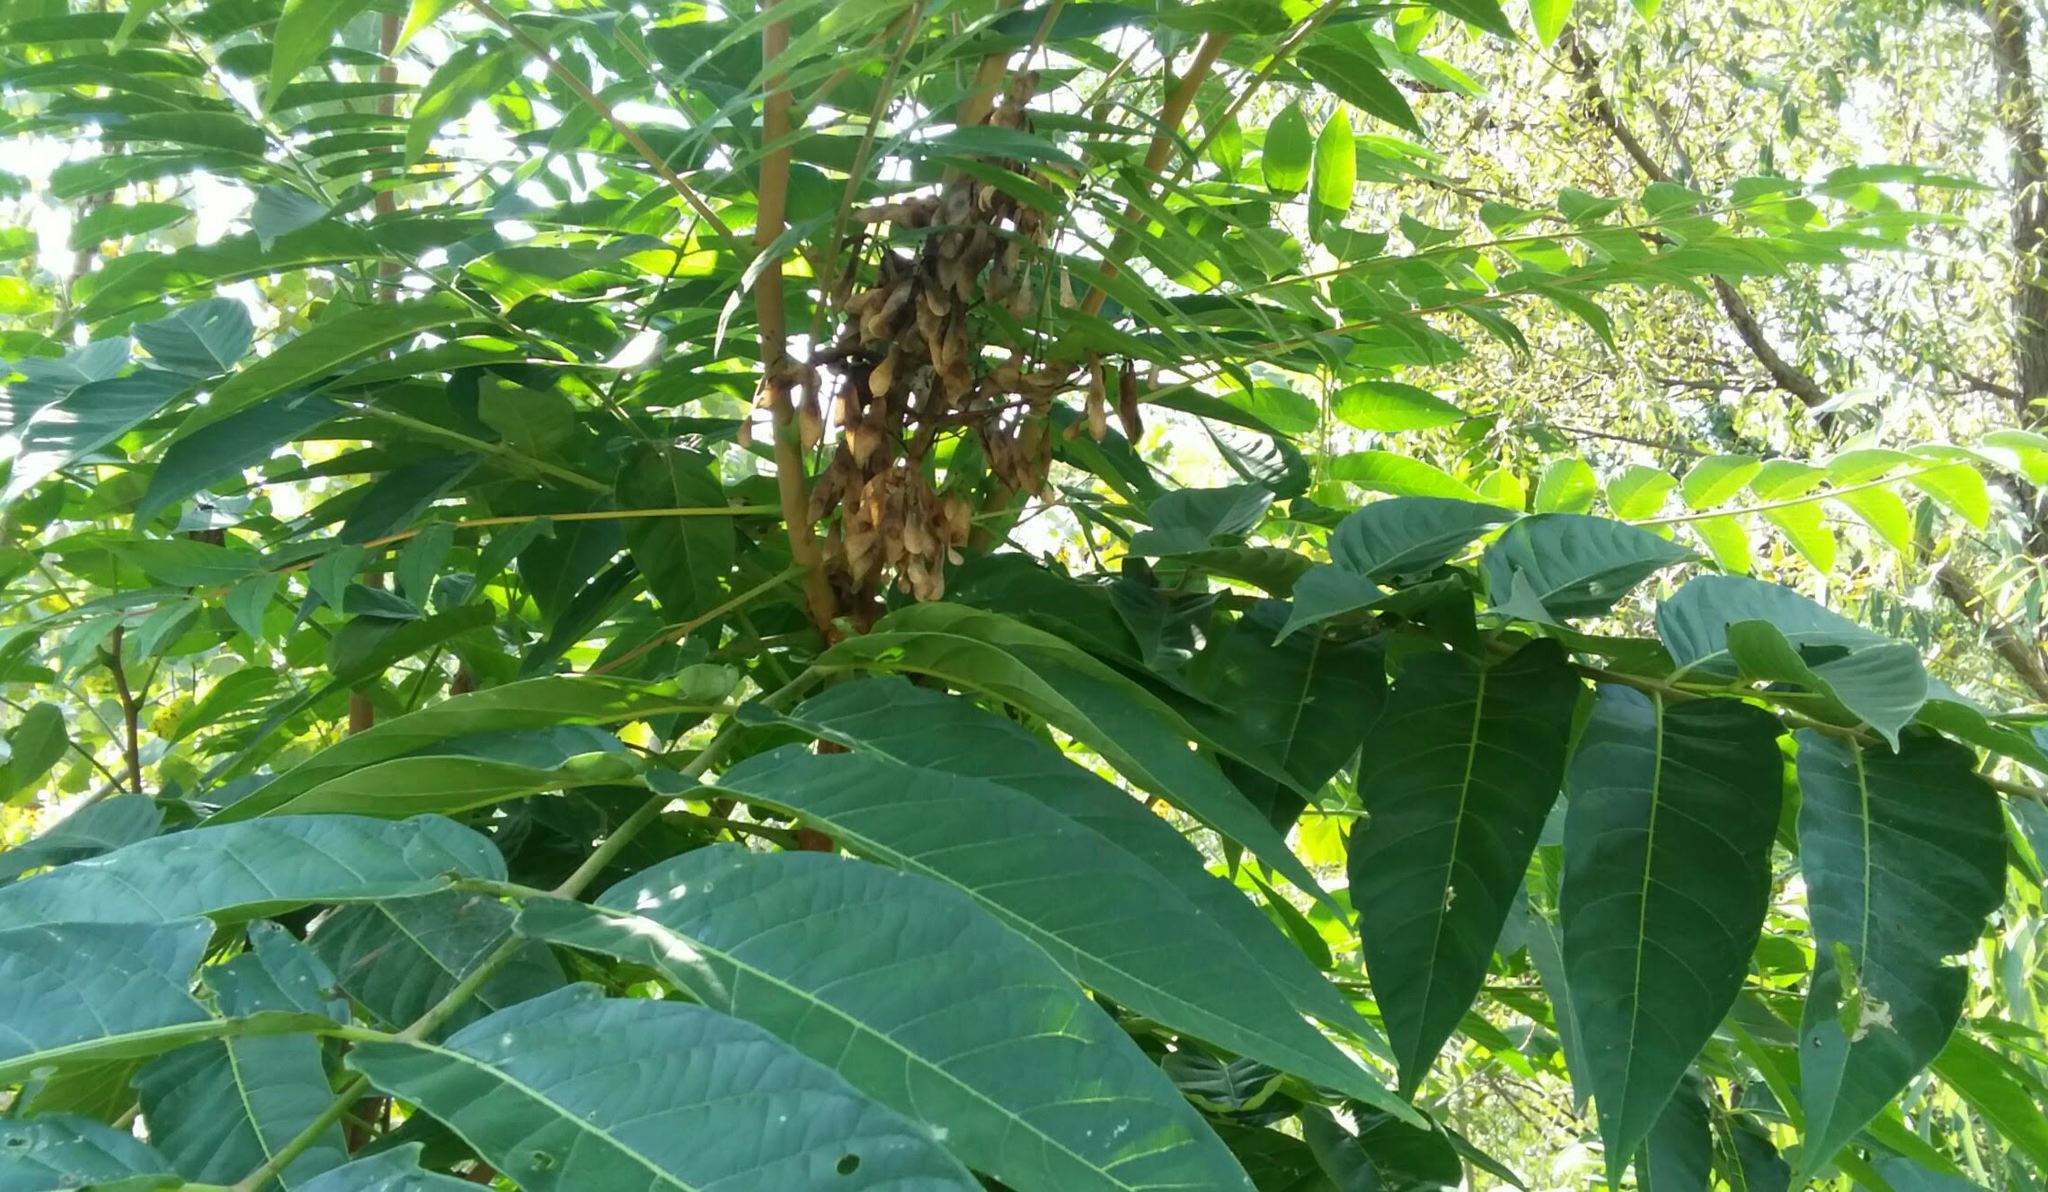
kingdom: Plantae
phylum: Tracheophyta
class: Magnoliopsida
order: Sapindales
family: Simaroubaceae
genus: Ailanthus
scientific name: Ailanthus altissima
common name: Tree-of-heaven
